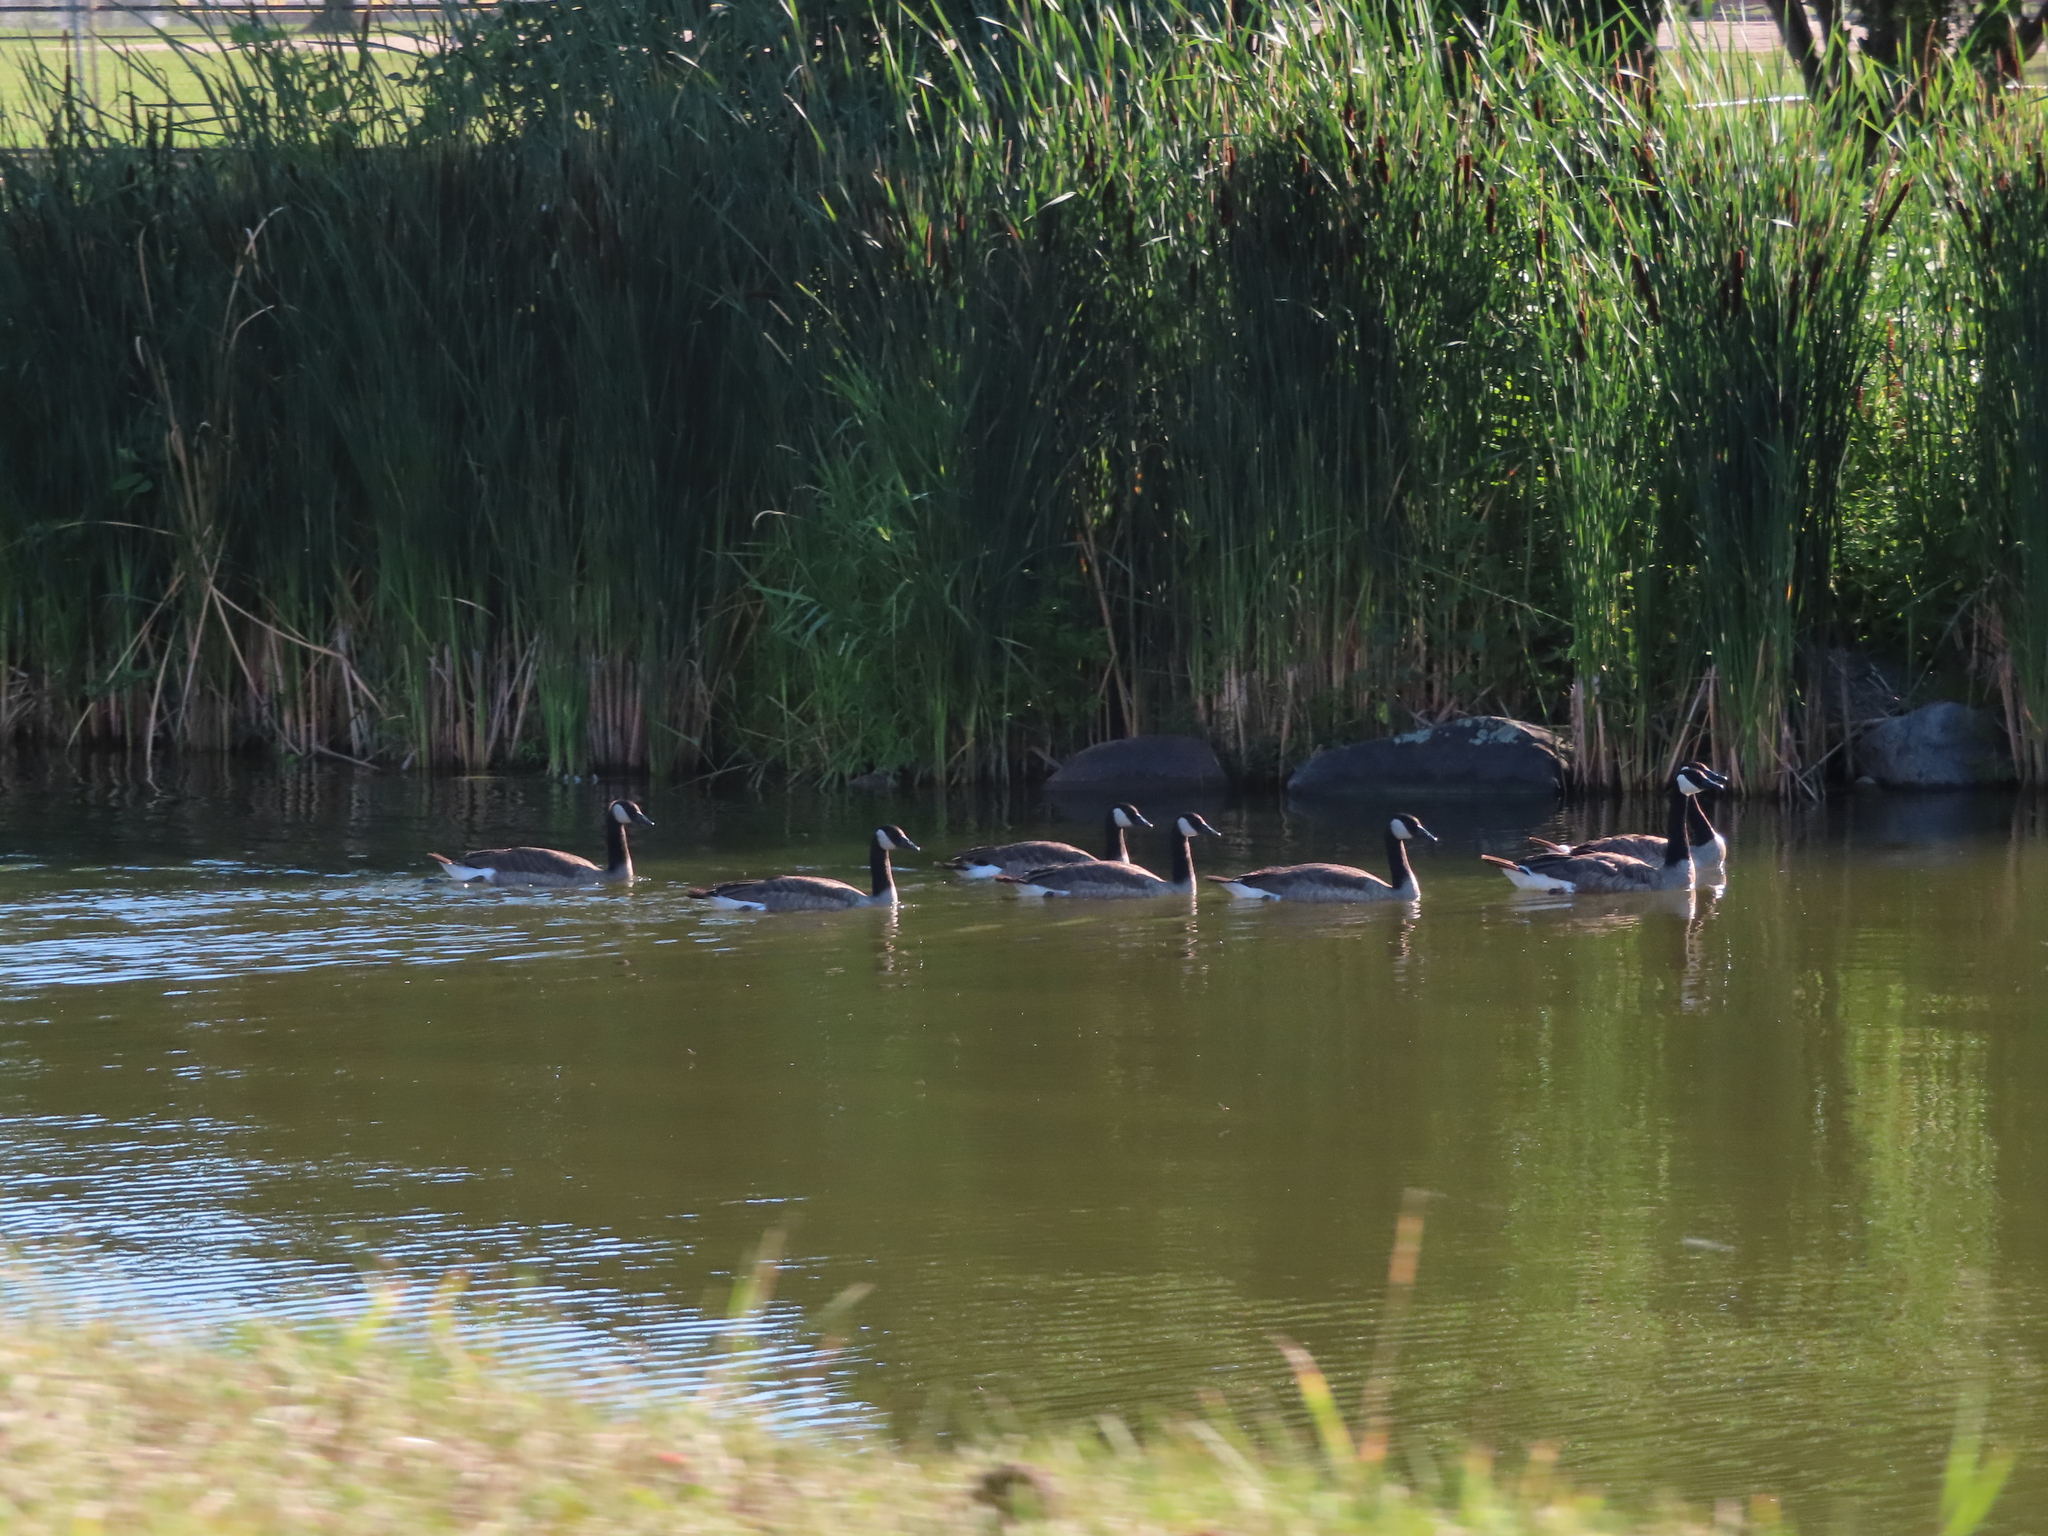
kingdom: Animalia
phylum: Chordata
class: Aves
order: Anseriformes
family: Anatidae
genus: Branta
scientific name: Branta canadensis
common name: Canada goose
